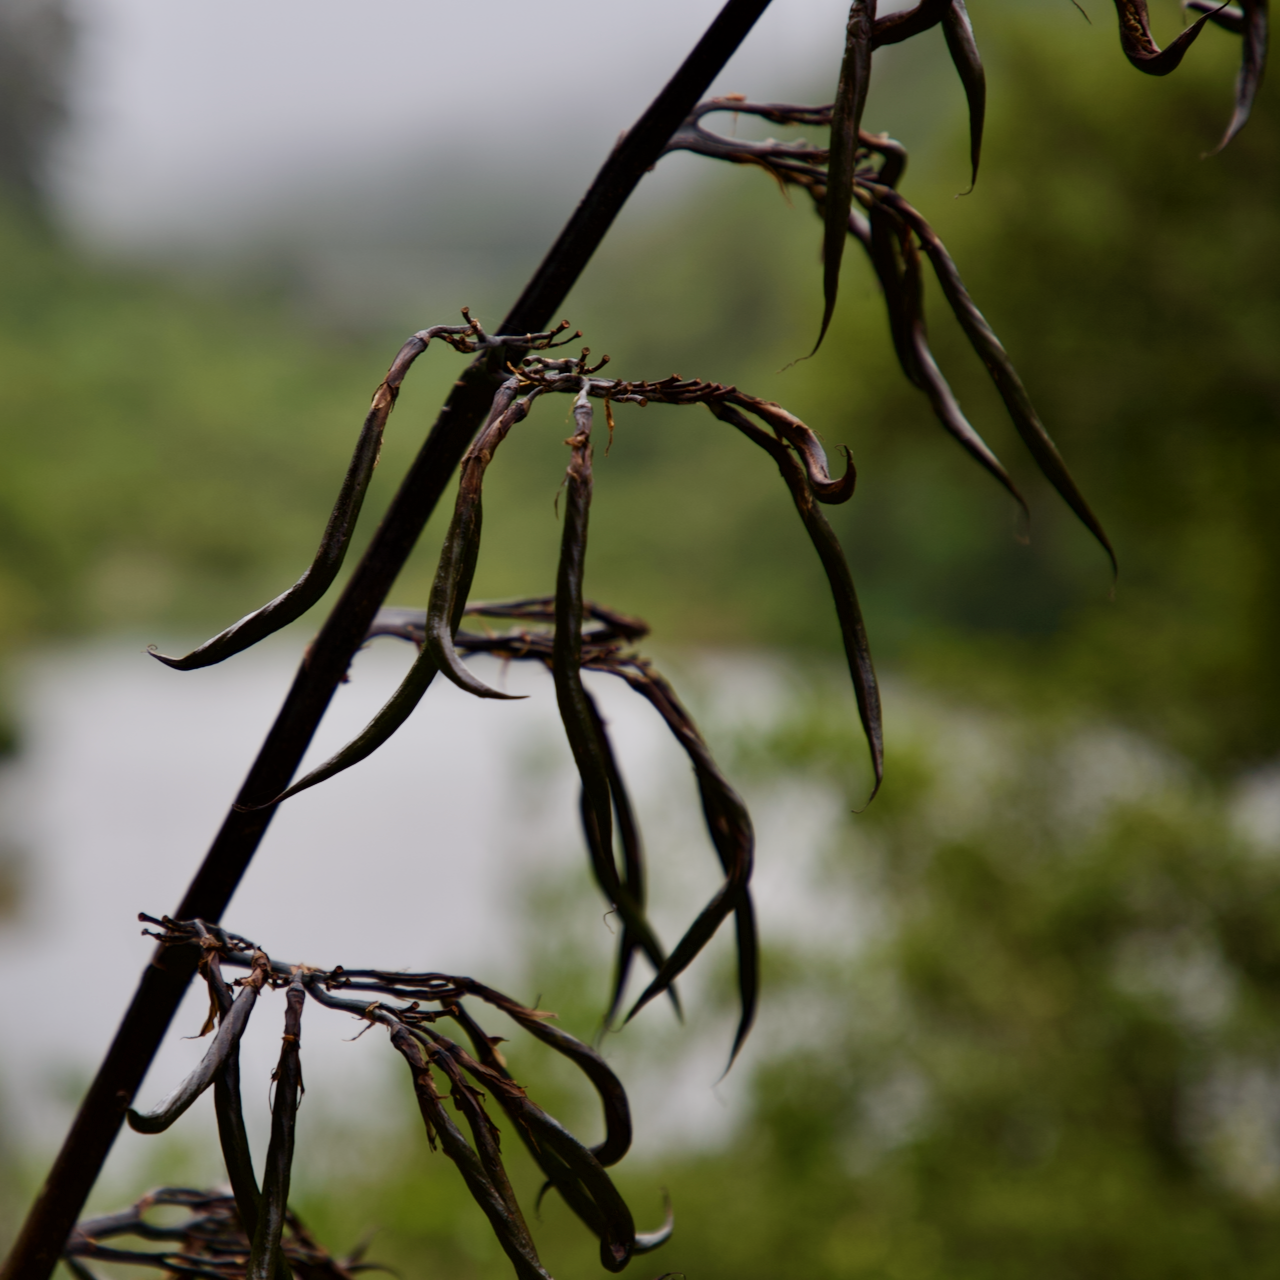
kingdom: Plantae
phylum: Tracheophyta
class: Liliopsida
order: Asparagales
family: Asphodelaceae
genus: Phormium
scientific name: Phormium colensoi
